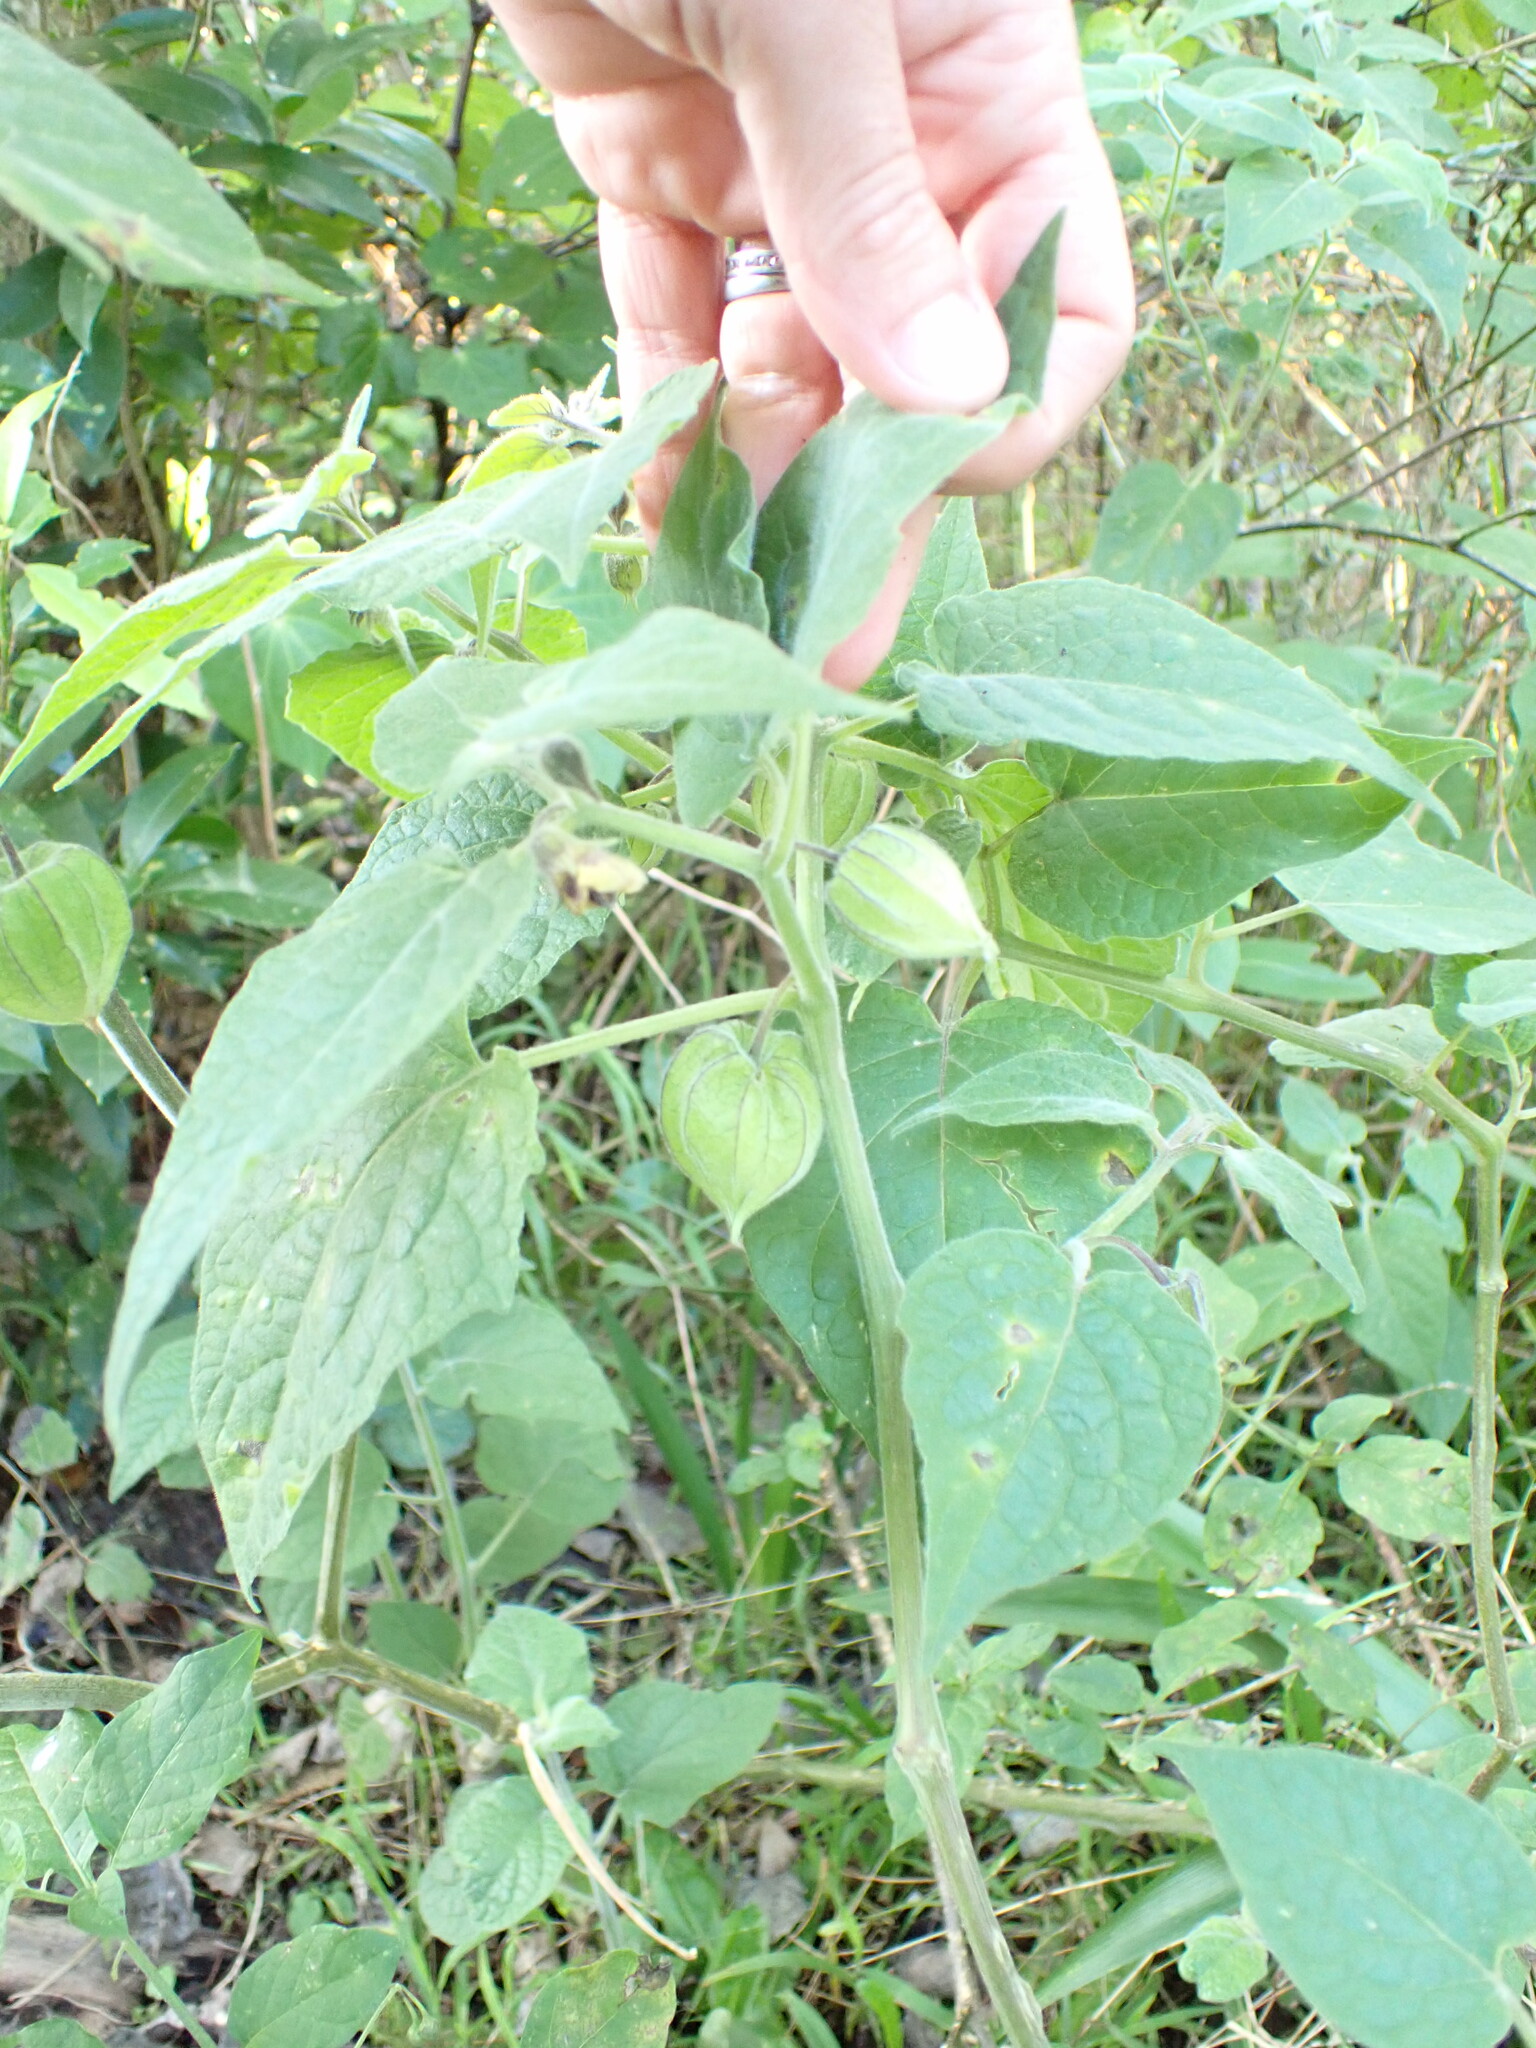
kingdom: Plantae
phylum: Tracheophyta
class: Magnoliopsida
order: Solanales
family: Solanaceae
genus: Physalis
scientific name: Physalis peruviana
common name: Cape-gooseberry
